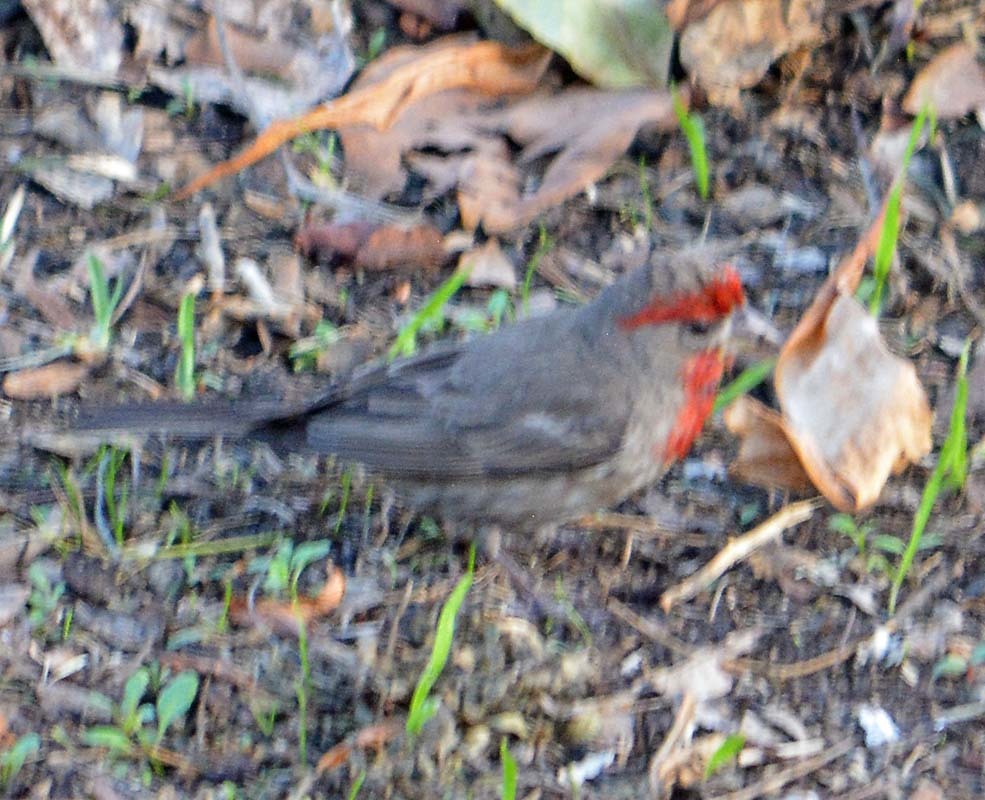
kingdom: Animalia
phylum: Chordata
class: Aves
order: Passeriformes
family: Fringillidae
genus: Haemorhous
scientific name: Haemorhous mexicanus
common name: House finch
